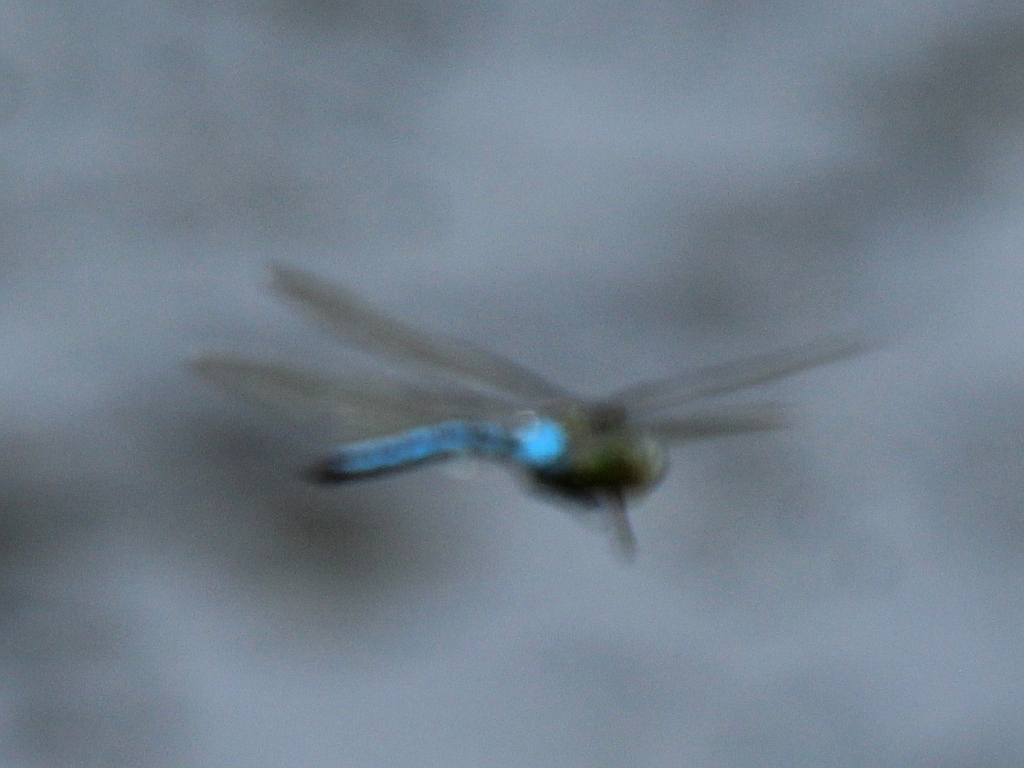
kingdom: Animalia
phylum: Arthropoda
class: Insecta
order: Odonata
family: Aeshnidae
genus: Anax
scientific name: Anax imperator
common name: Emperor dragonfly
